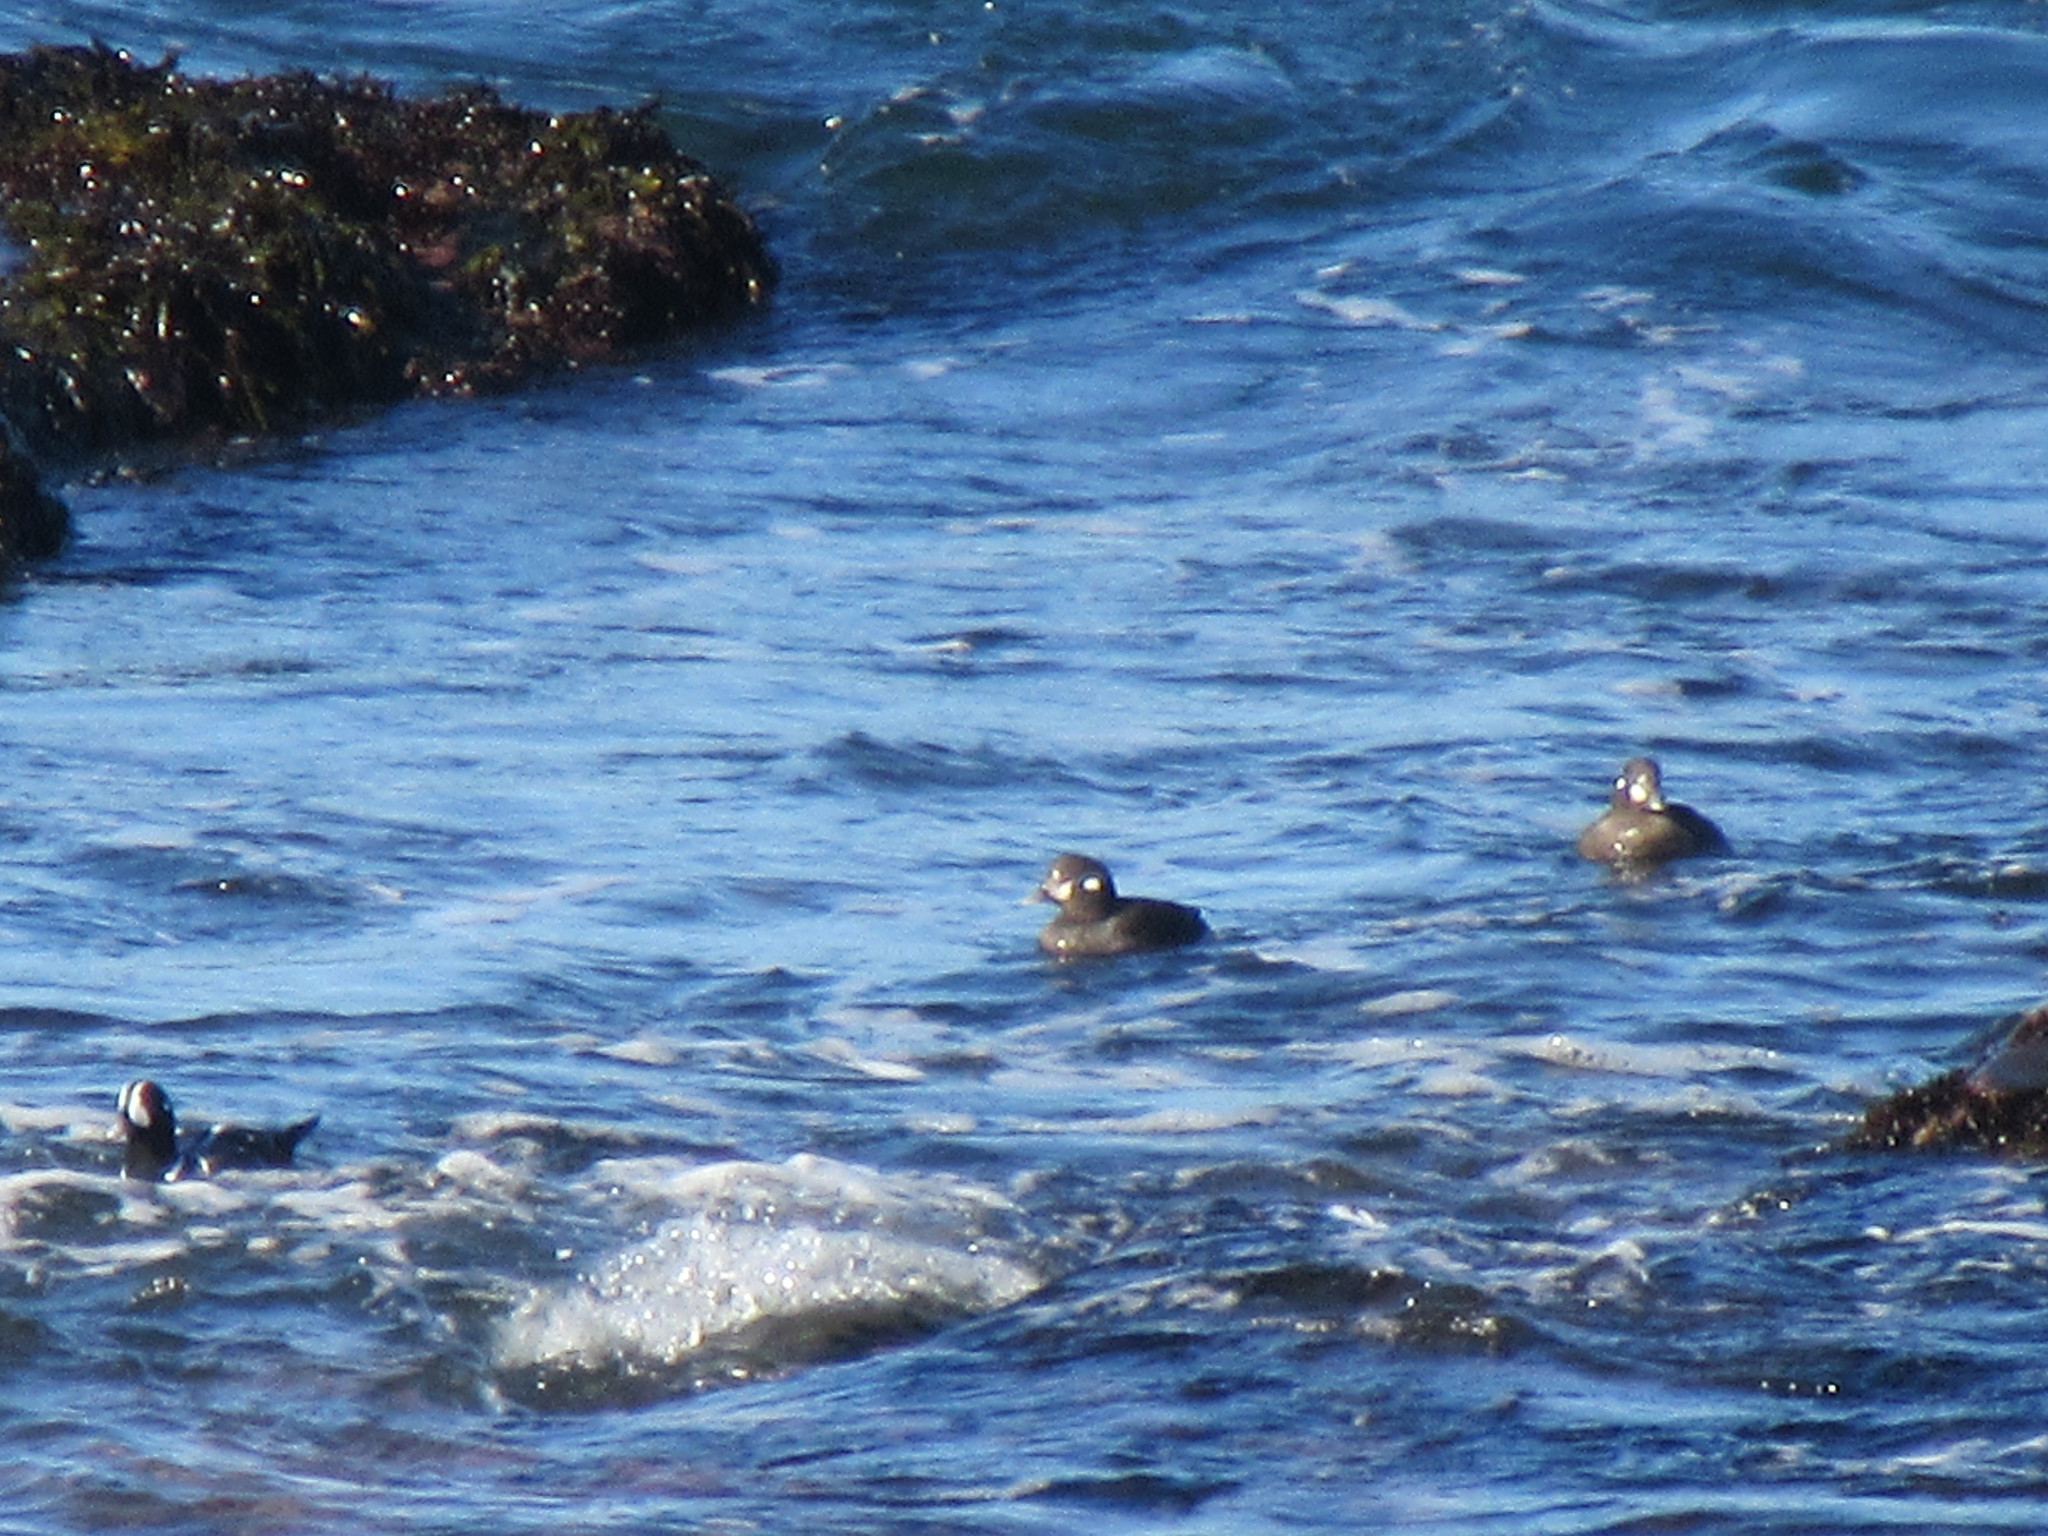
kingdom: Animalia
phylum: Chordata
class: Aves
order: Anseriformes
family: Anatidae
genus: Histrionicus
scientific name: Histrionicus histrionicus
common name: Harlequin duck
